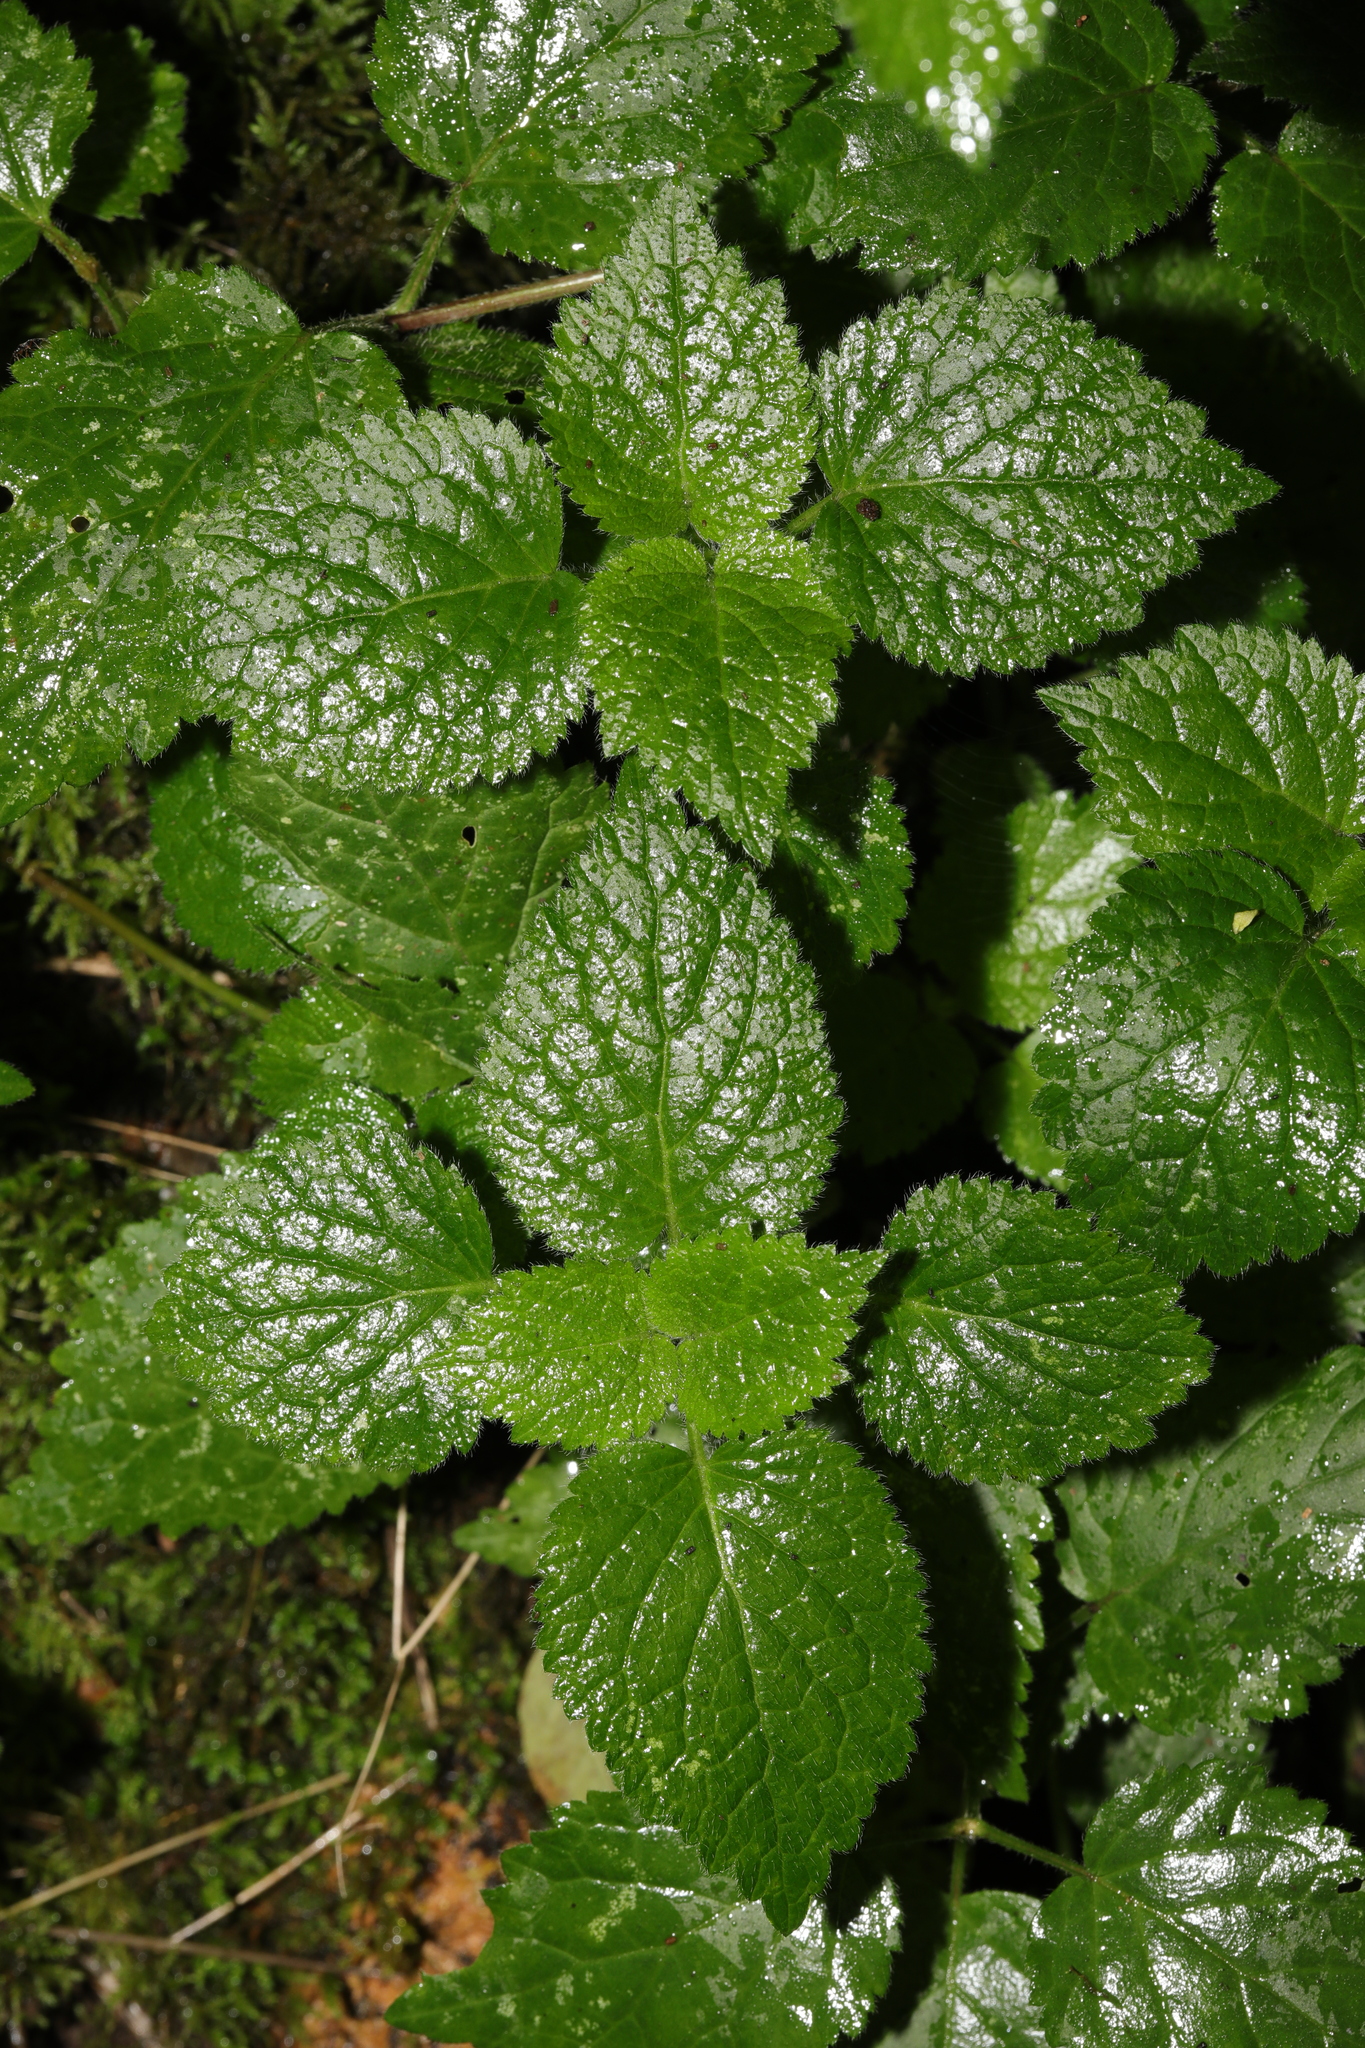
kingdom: Plantae
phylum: Tracheophyta
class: Magnoliopsida
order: Lamiales
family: Lamiaceae
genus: Lamium
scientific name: Lamium galeobdolon
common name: Yellow archangel
